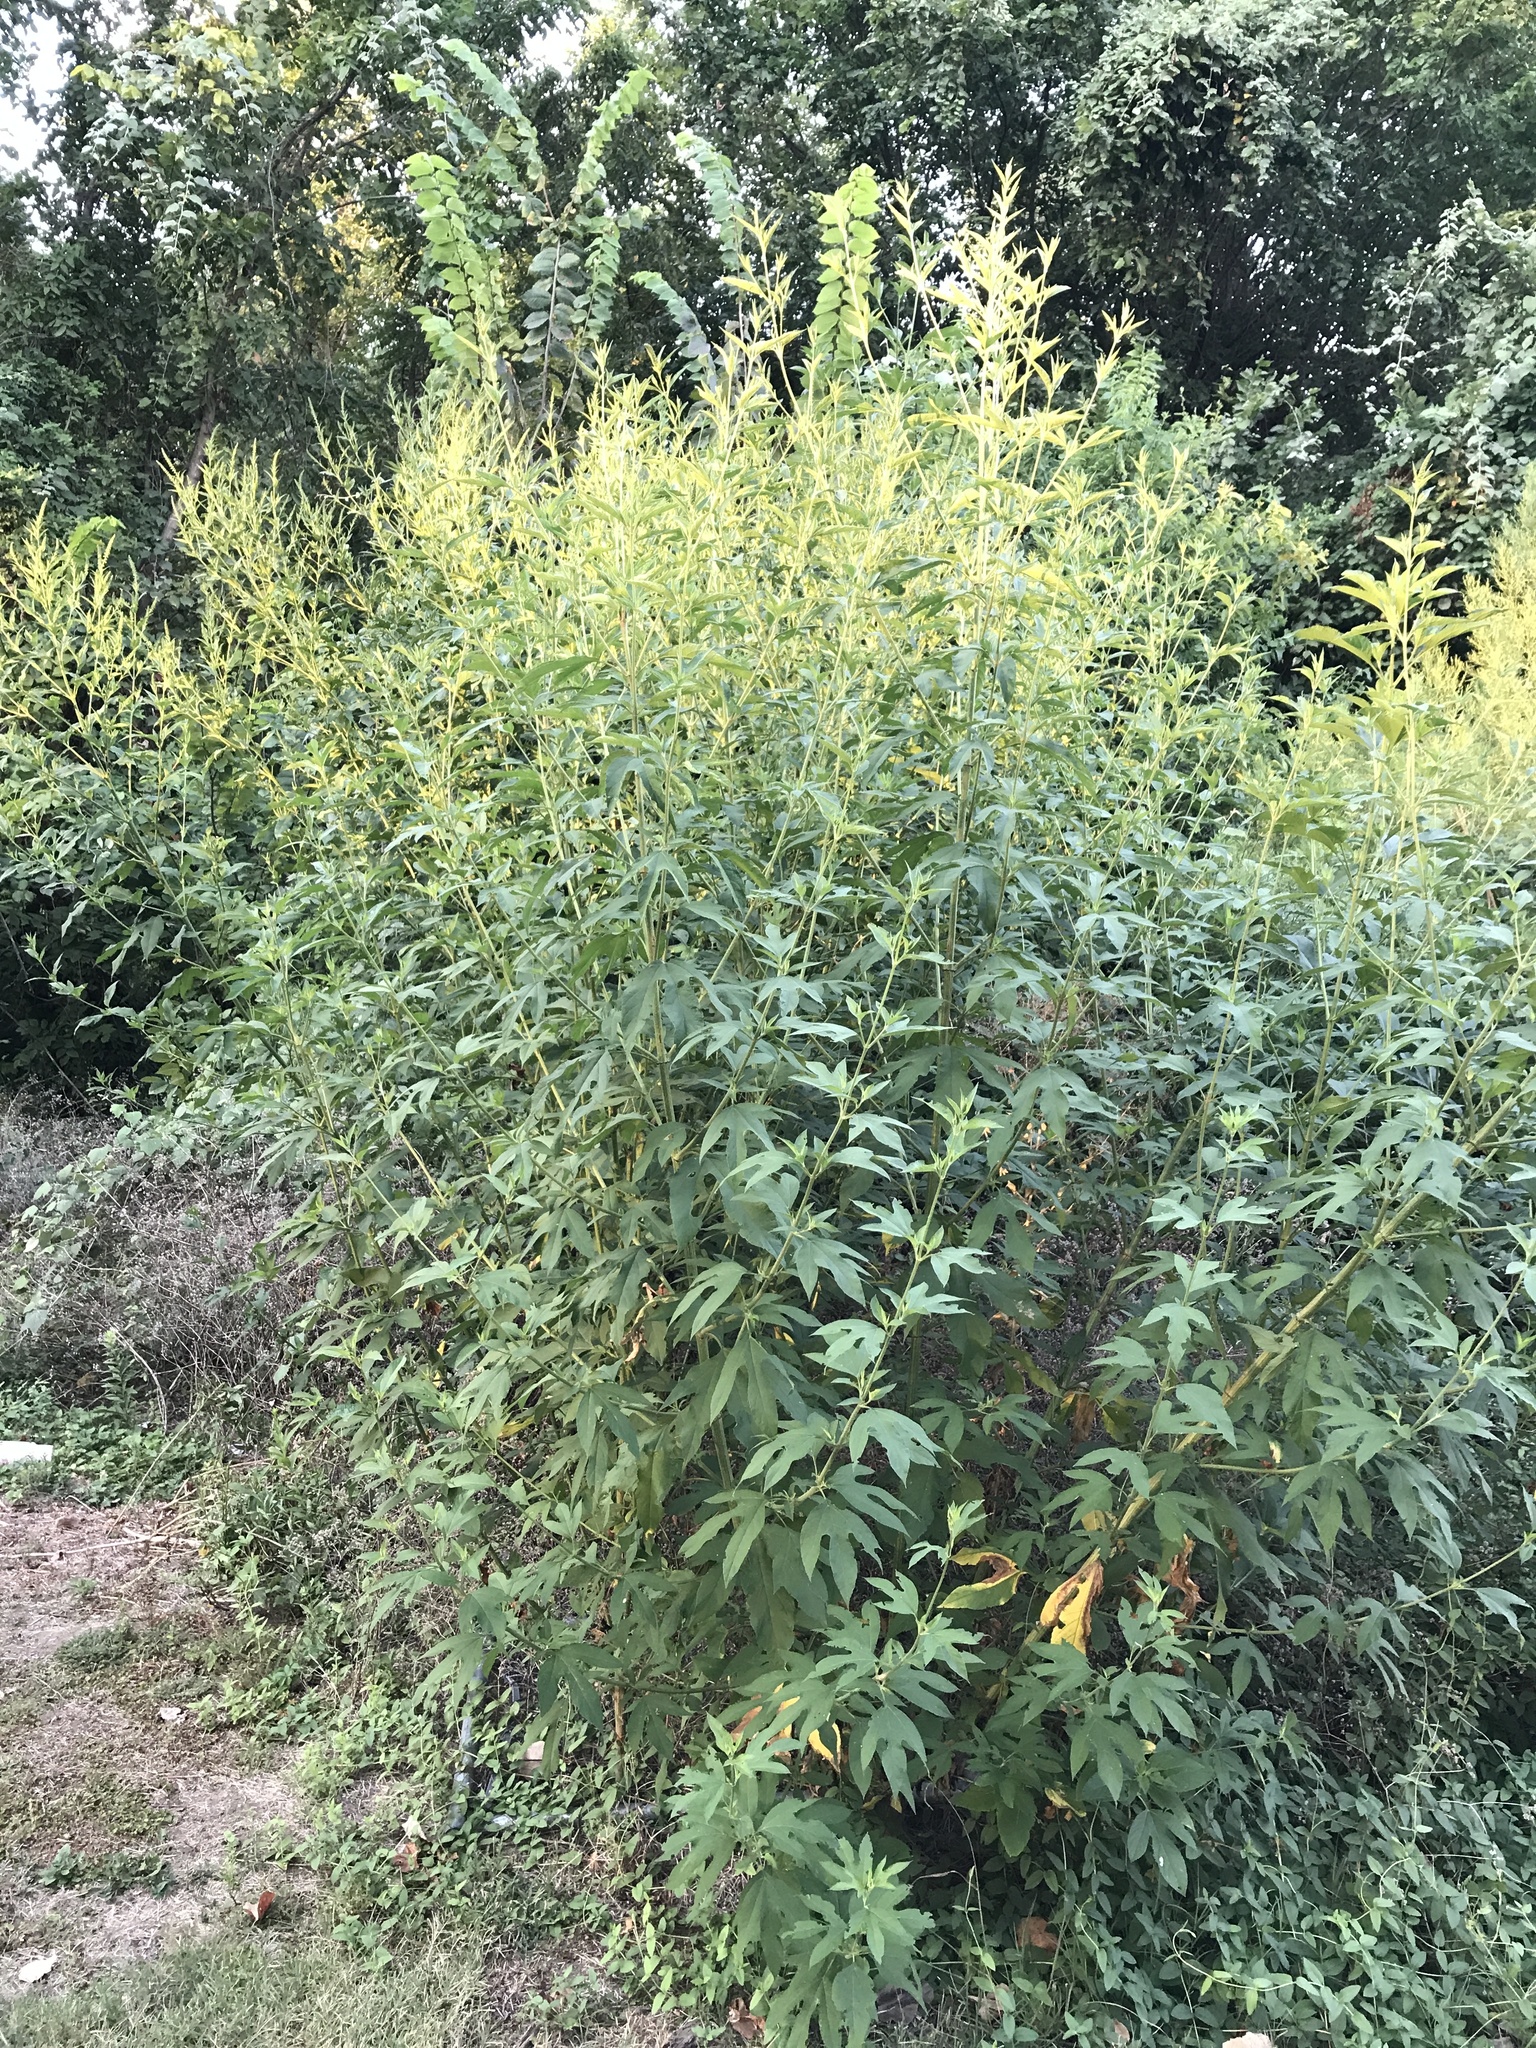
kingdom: Plantae
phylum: Tracheophyta
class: Magnoliopsida
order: Asterales
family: Asteraceae
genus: Ambrosia
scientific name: Ambrosia trifida
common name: Giant ragweed
